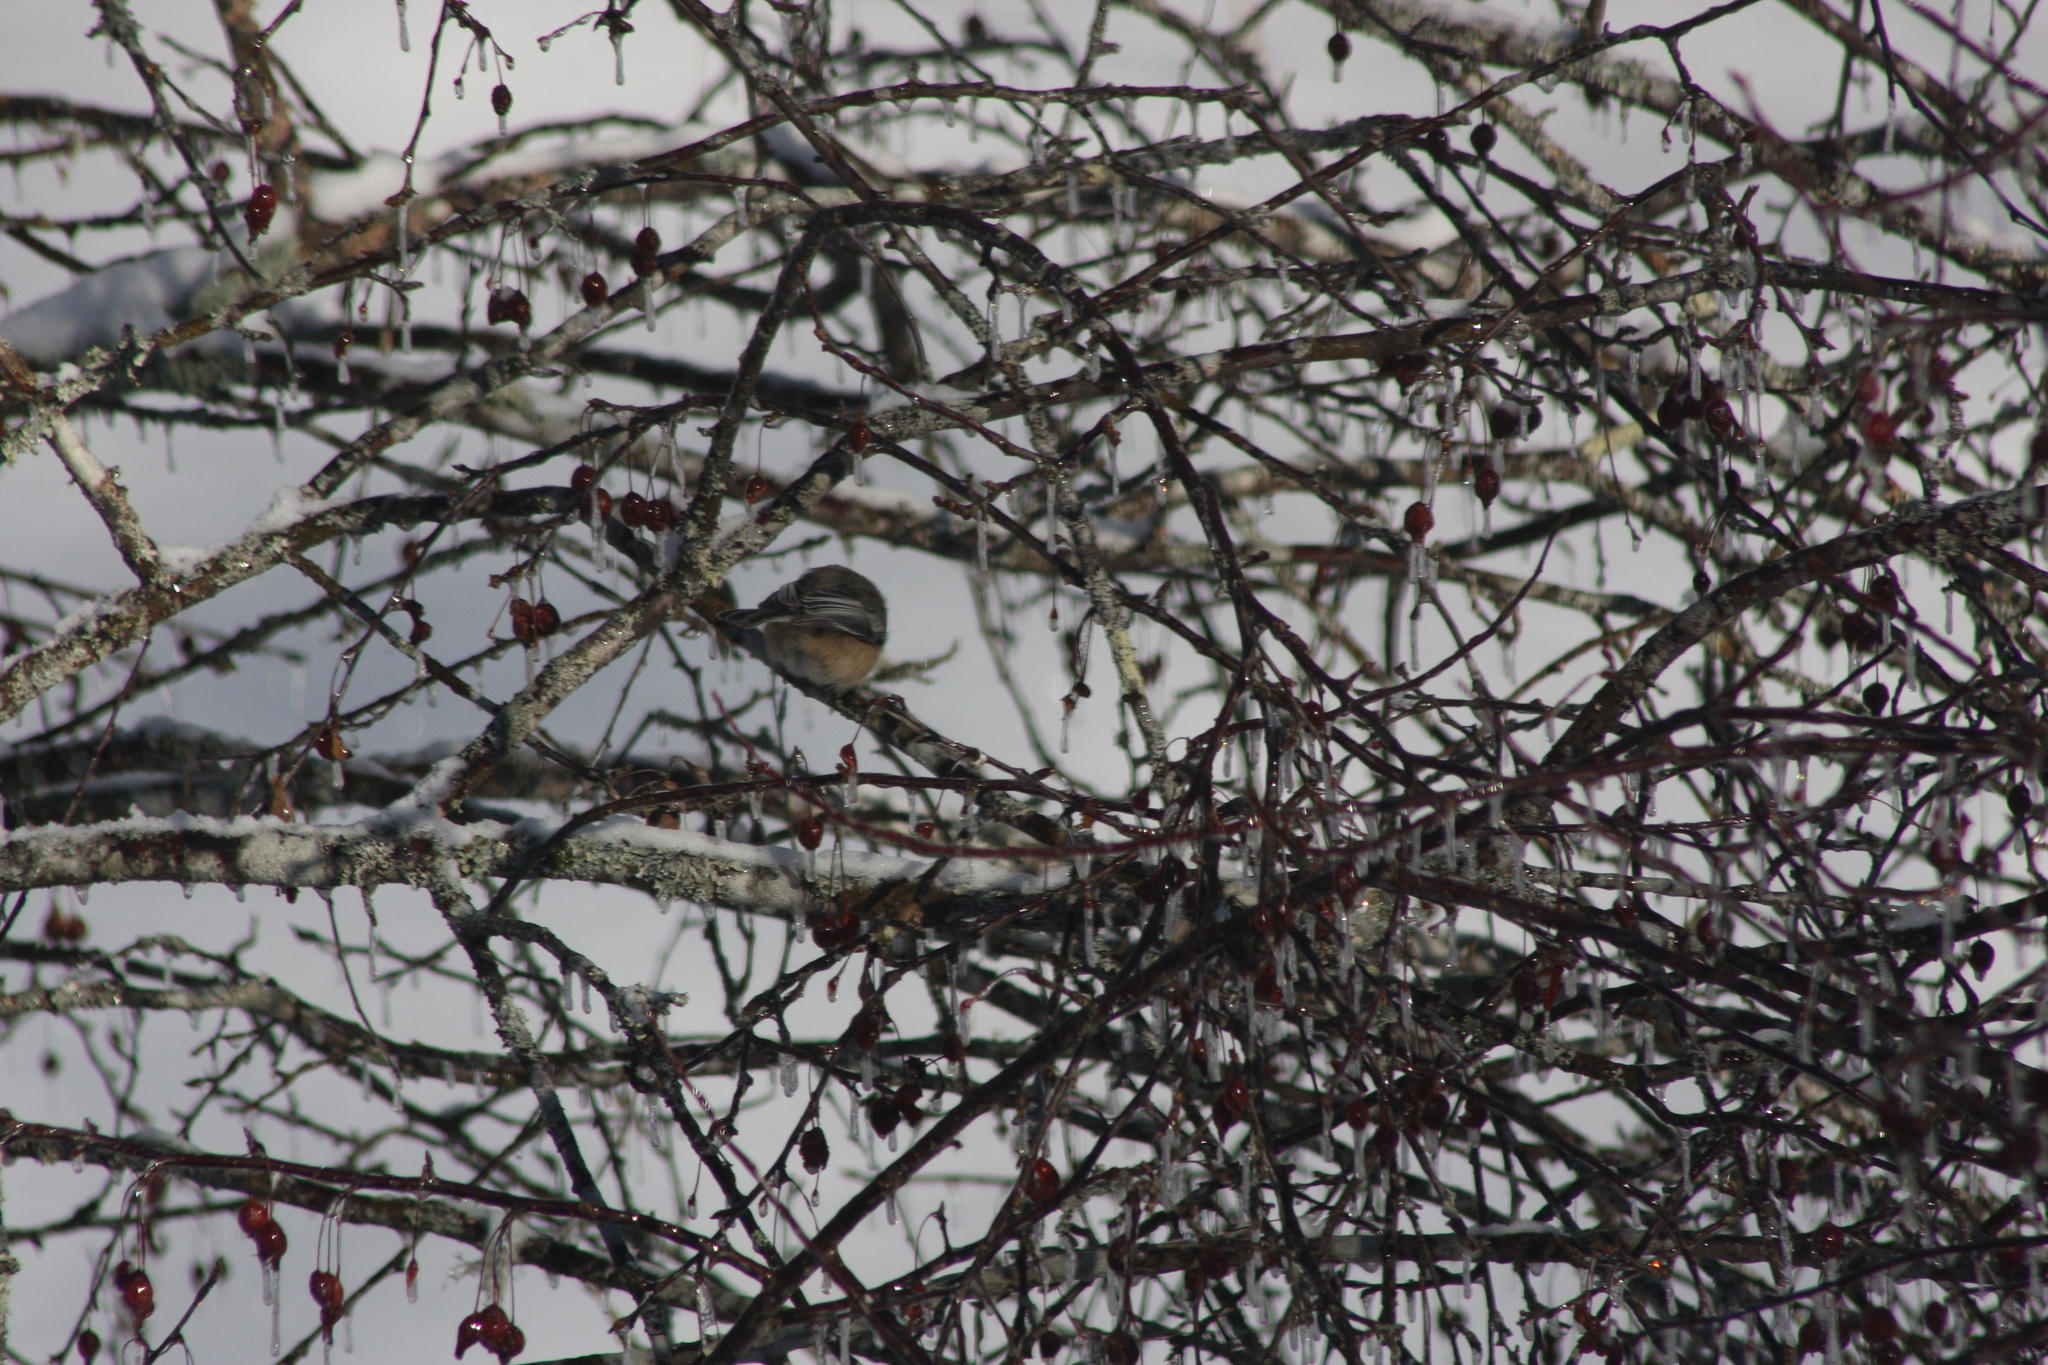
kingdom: Animalia
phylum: Chordata
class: Aves
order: Passeriformes
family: Paridae
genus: Poecile
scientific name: Poecile atricapillus
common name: Black-capped chickadee
